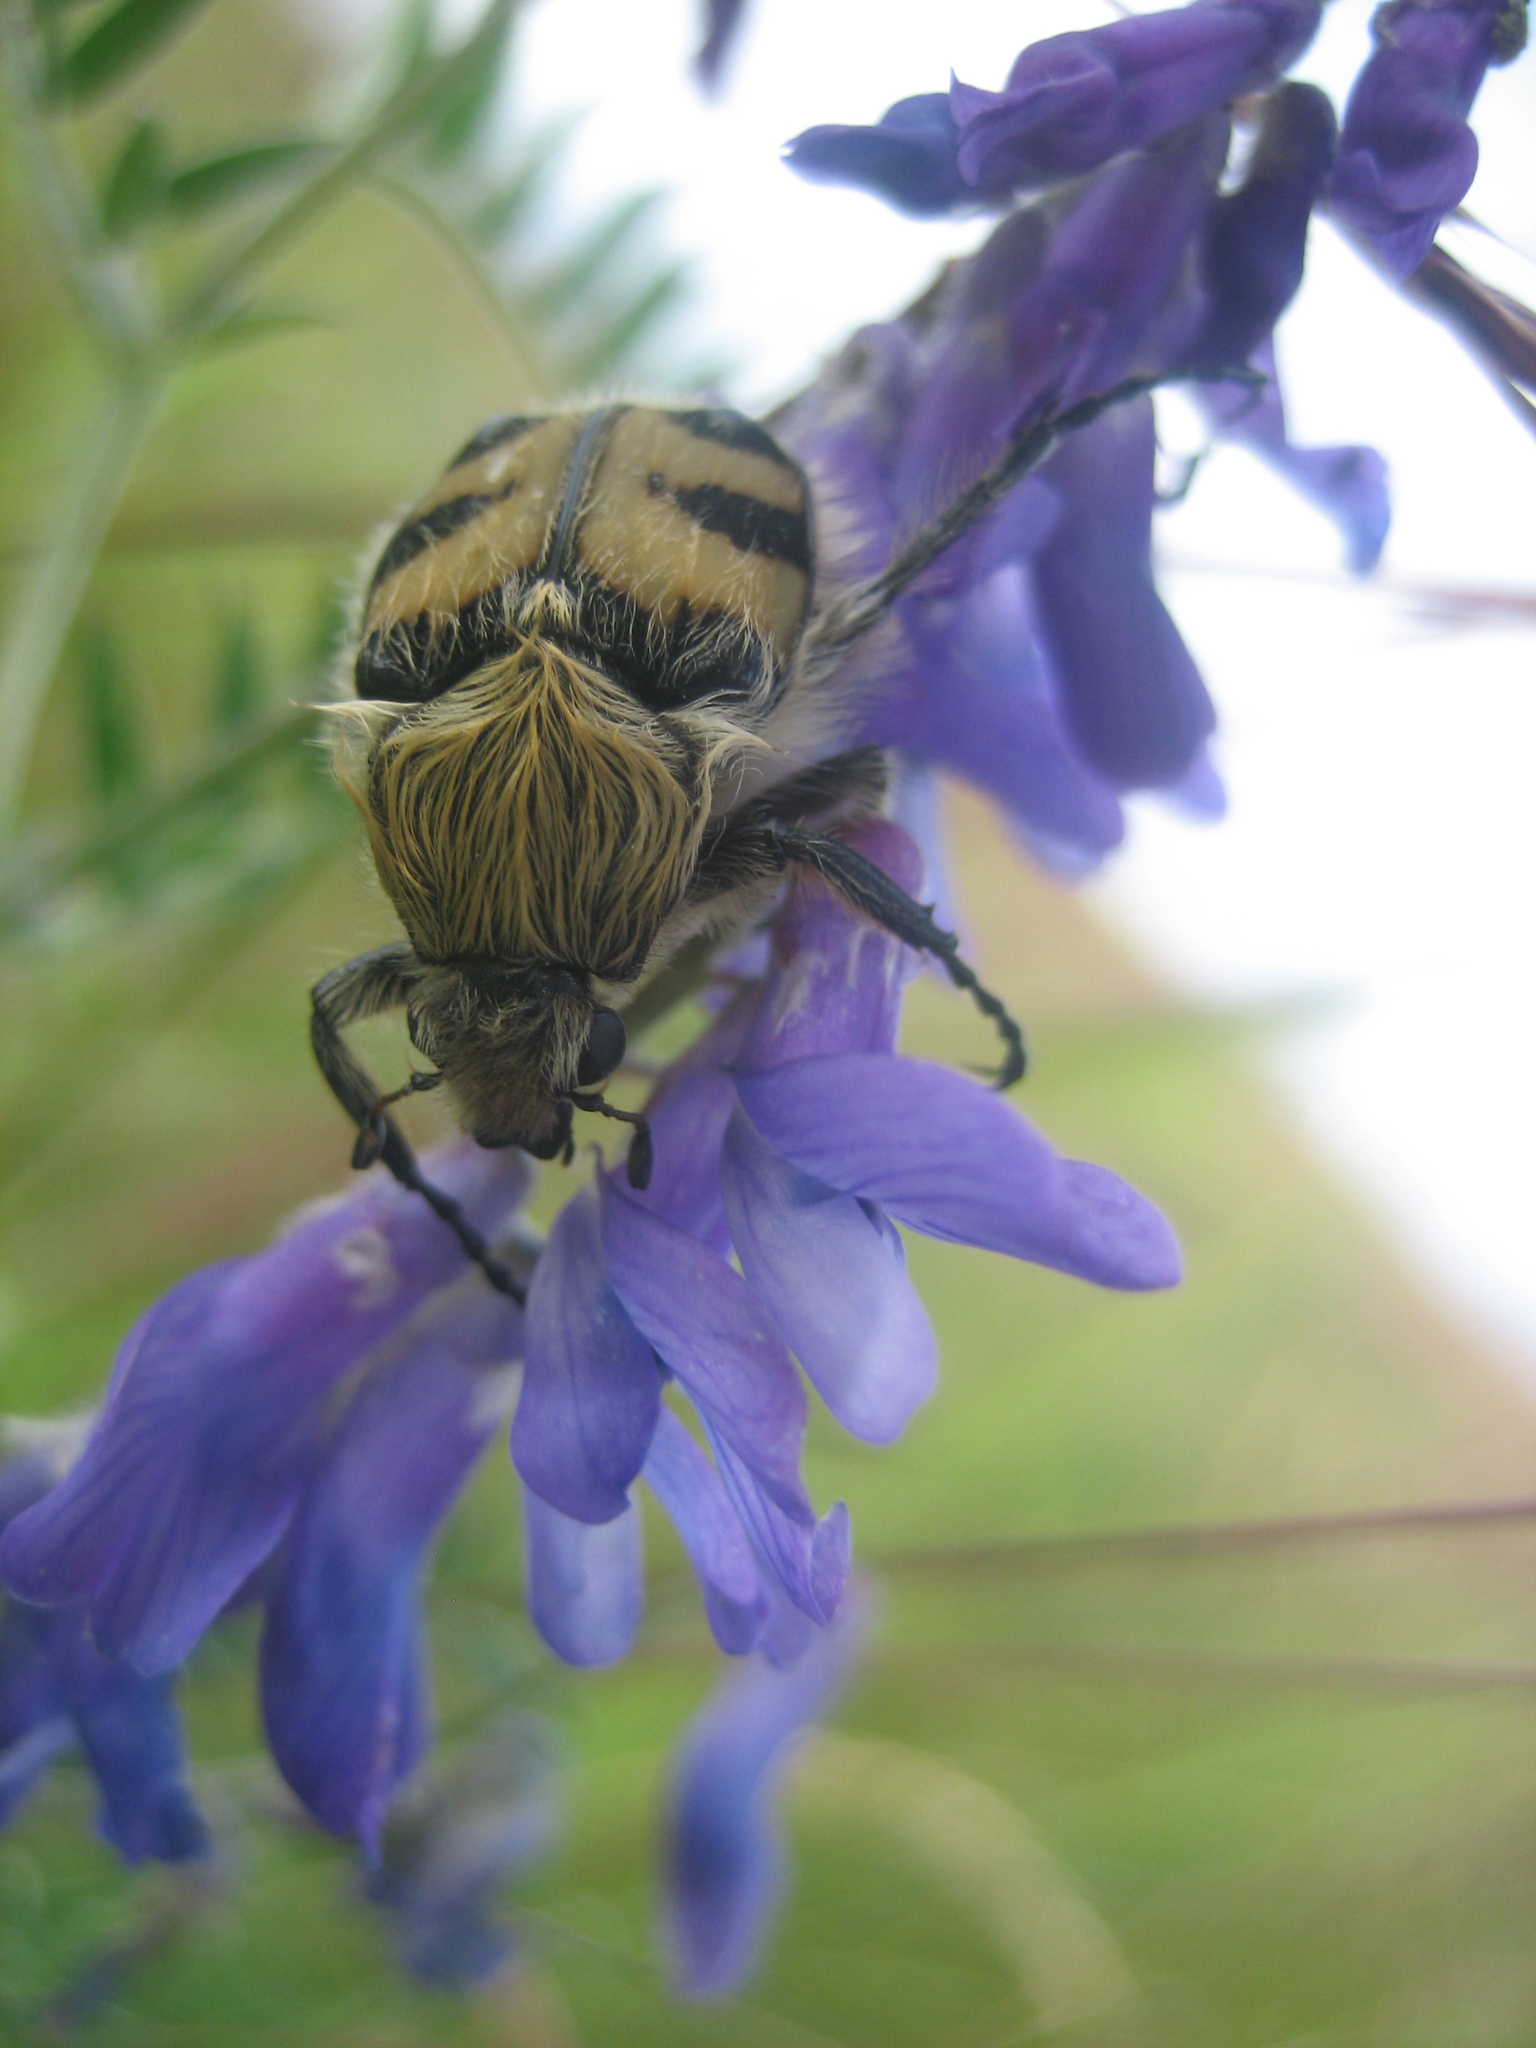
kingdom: Animalia
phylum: Arthropoda
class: Insecta
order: Coleoptera
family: Scarabaeidae
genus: Trichius
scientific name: Trichius fasciatus
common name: Bee beetle
